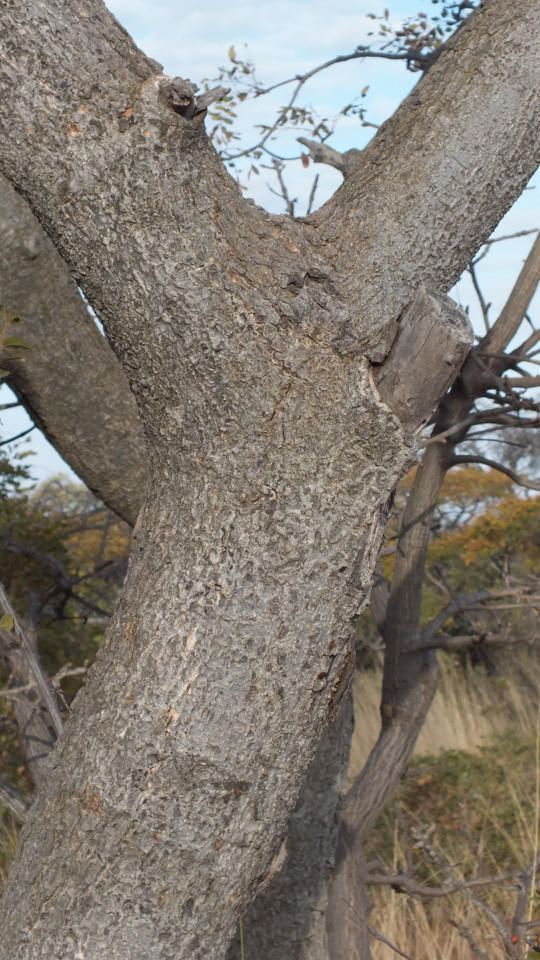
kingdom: Plantae
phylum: Tracheophyta
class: Magnoliopsida
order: Fabales
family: Fabaceae
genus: Burkea
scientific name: Burkea africana
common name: Mkalati tree
